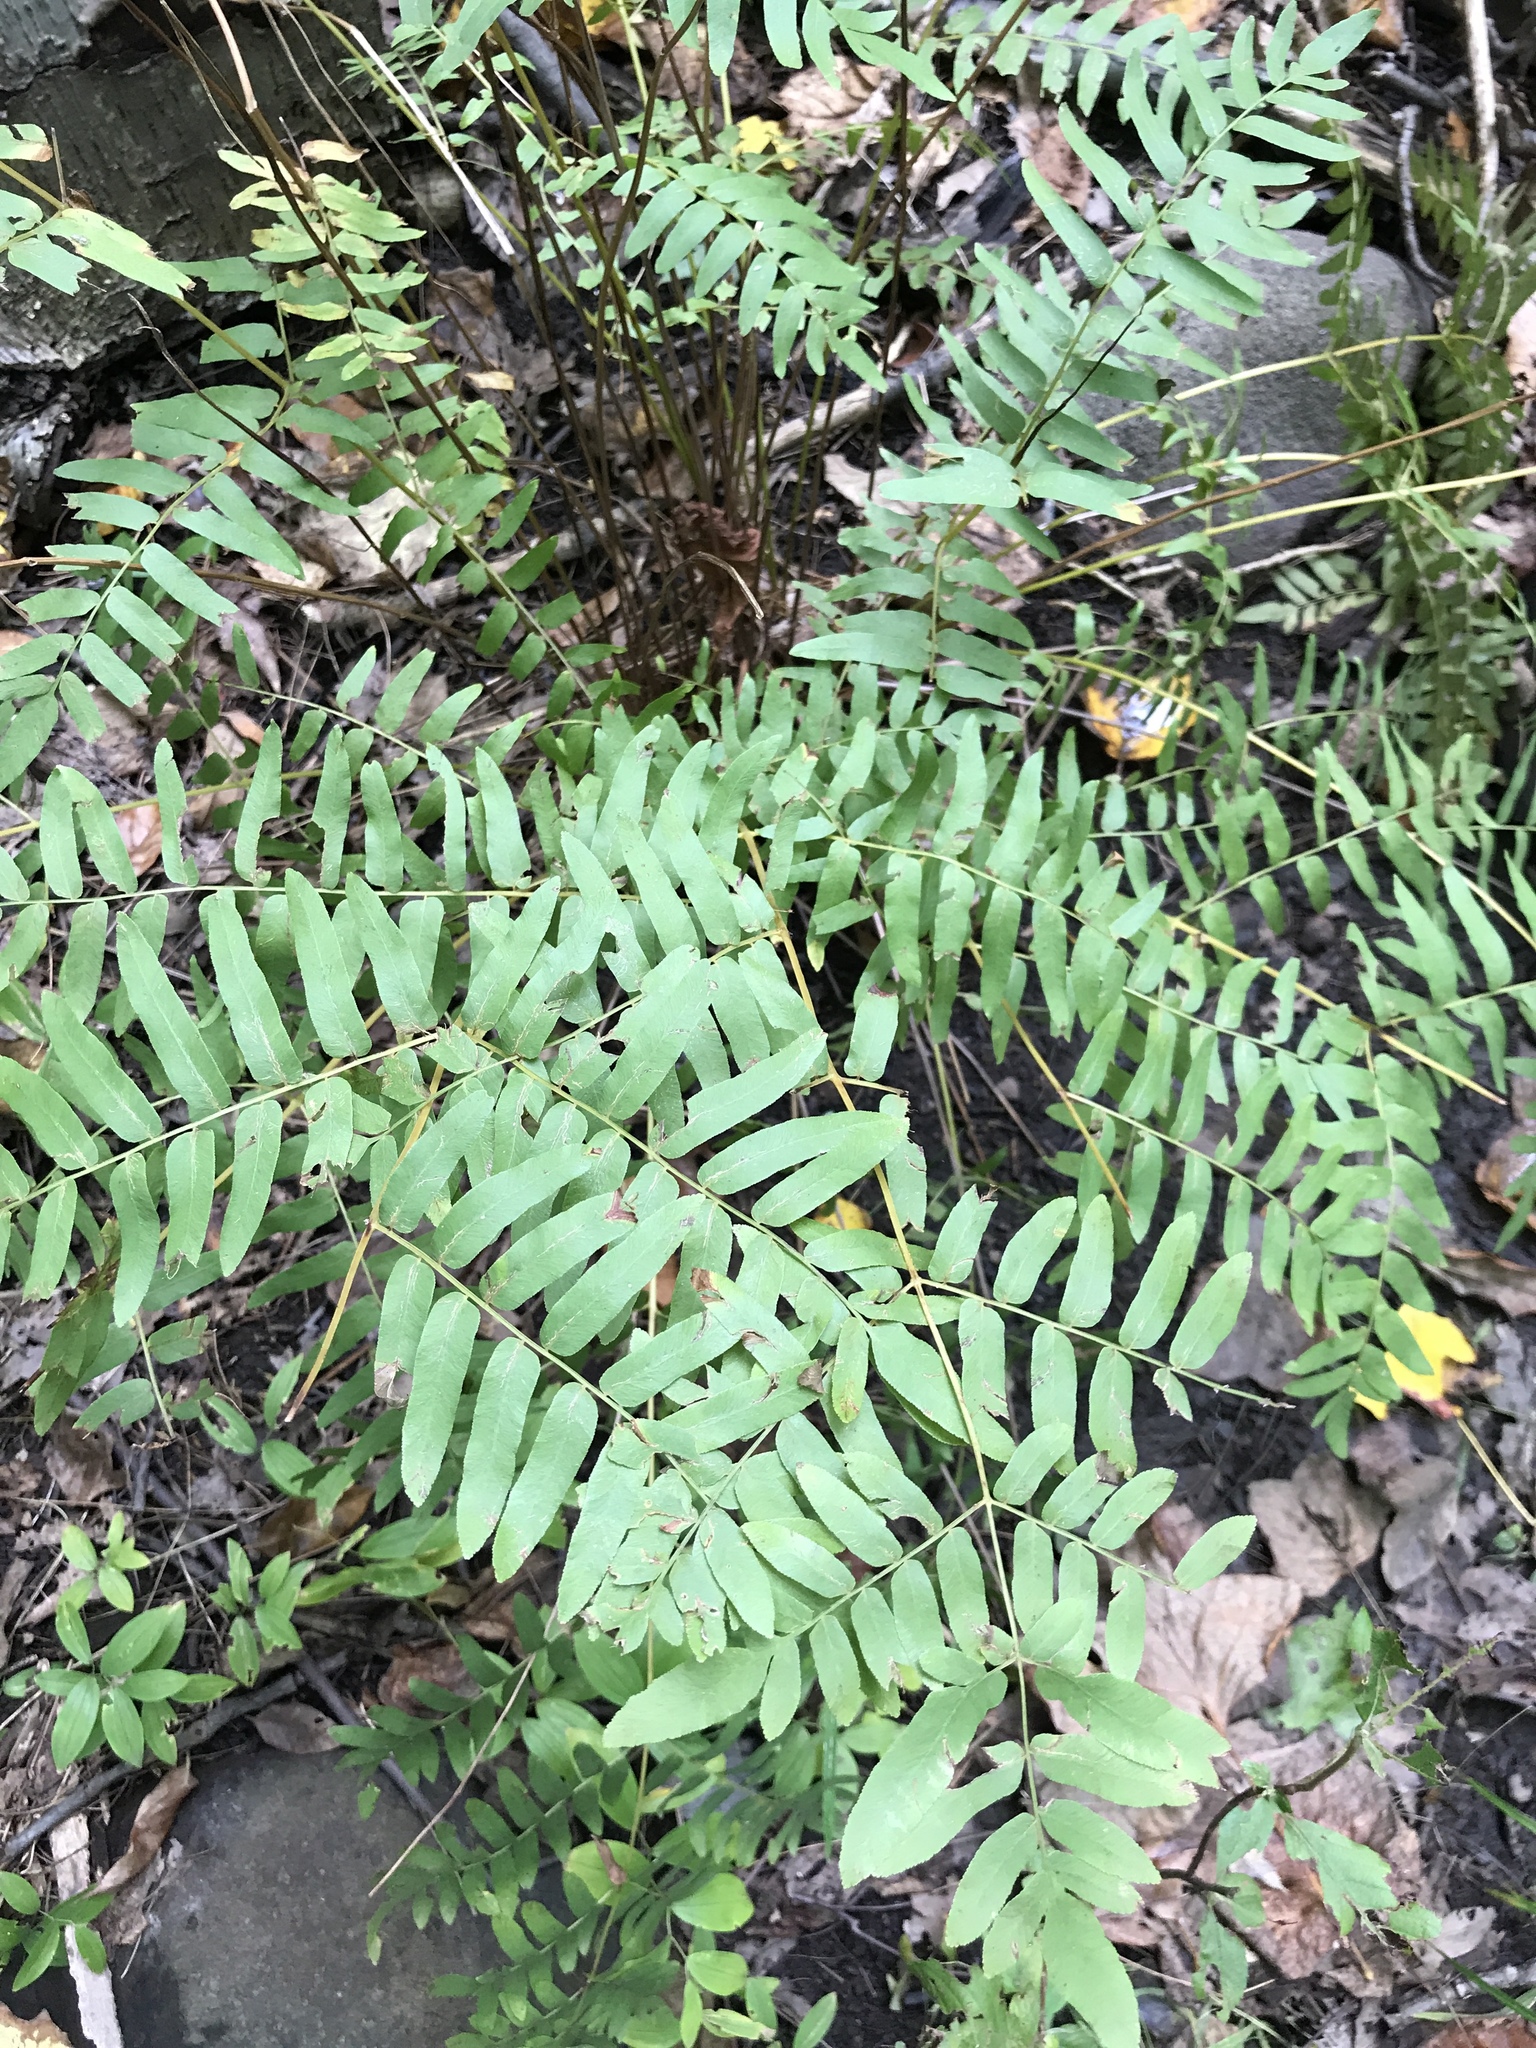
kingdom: Plantae
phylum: Tracheophyta
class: Polypodiopsida
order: Osmundales
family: Osmundaceae
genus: Osmunda
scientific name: Osmunda spectabilis
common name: American royal fern
